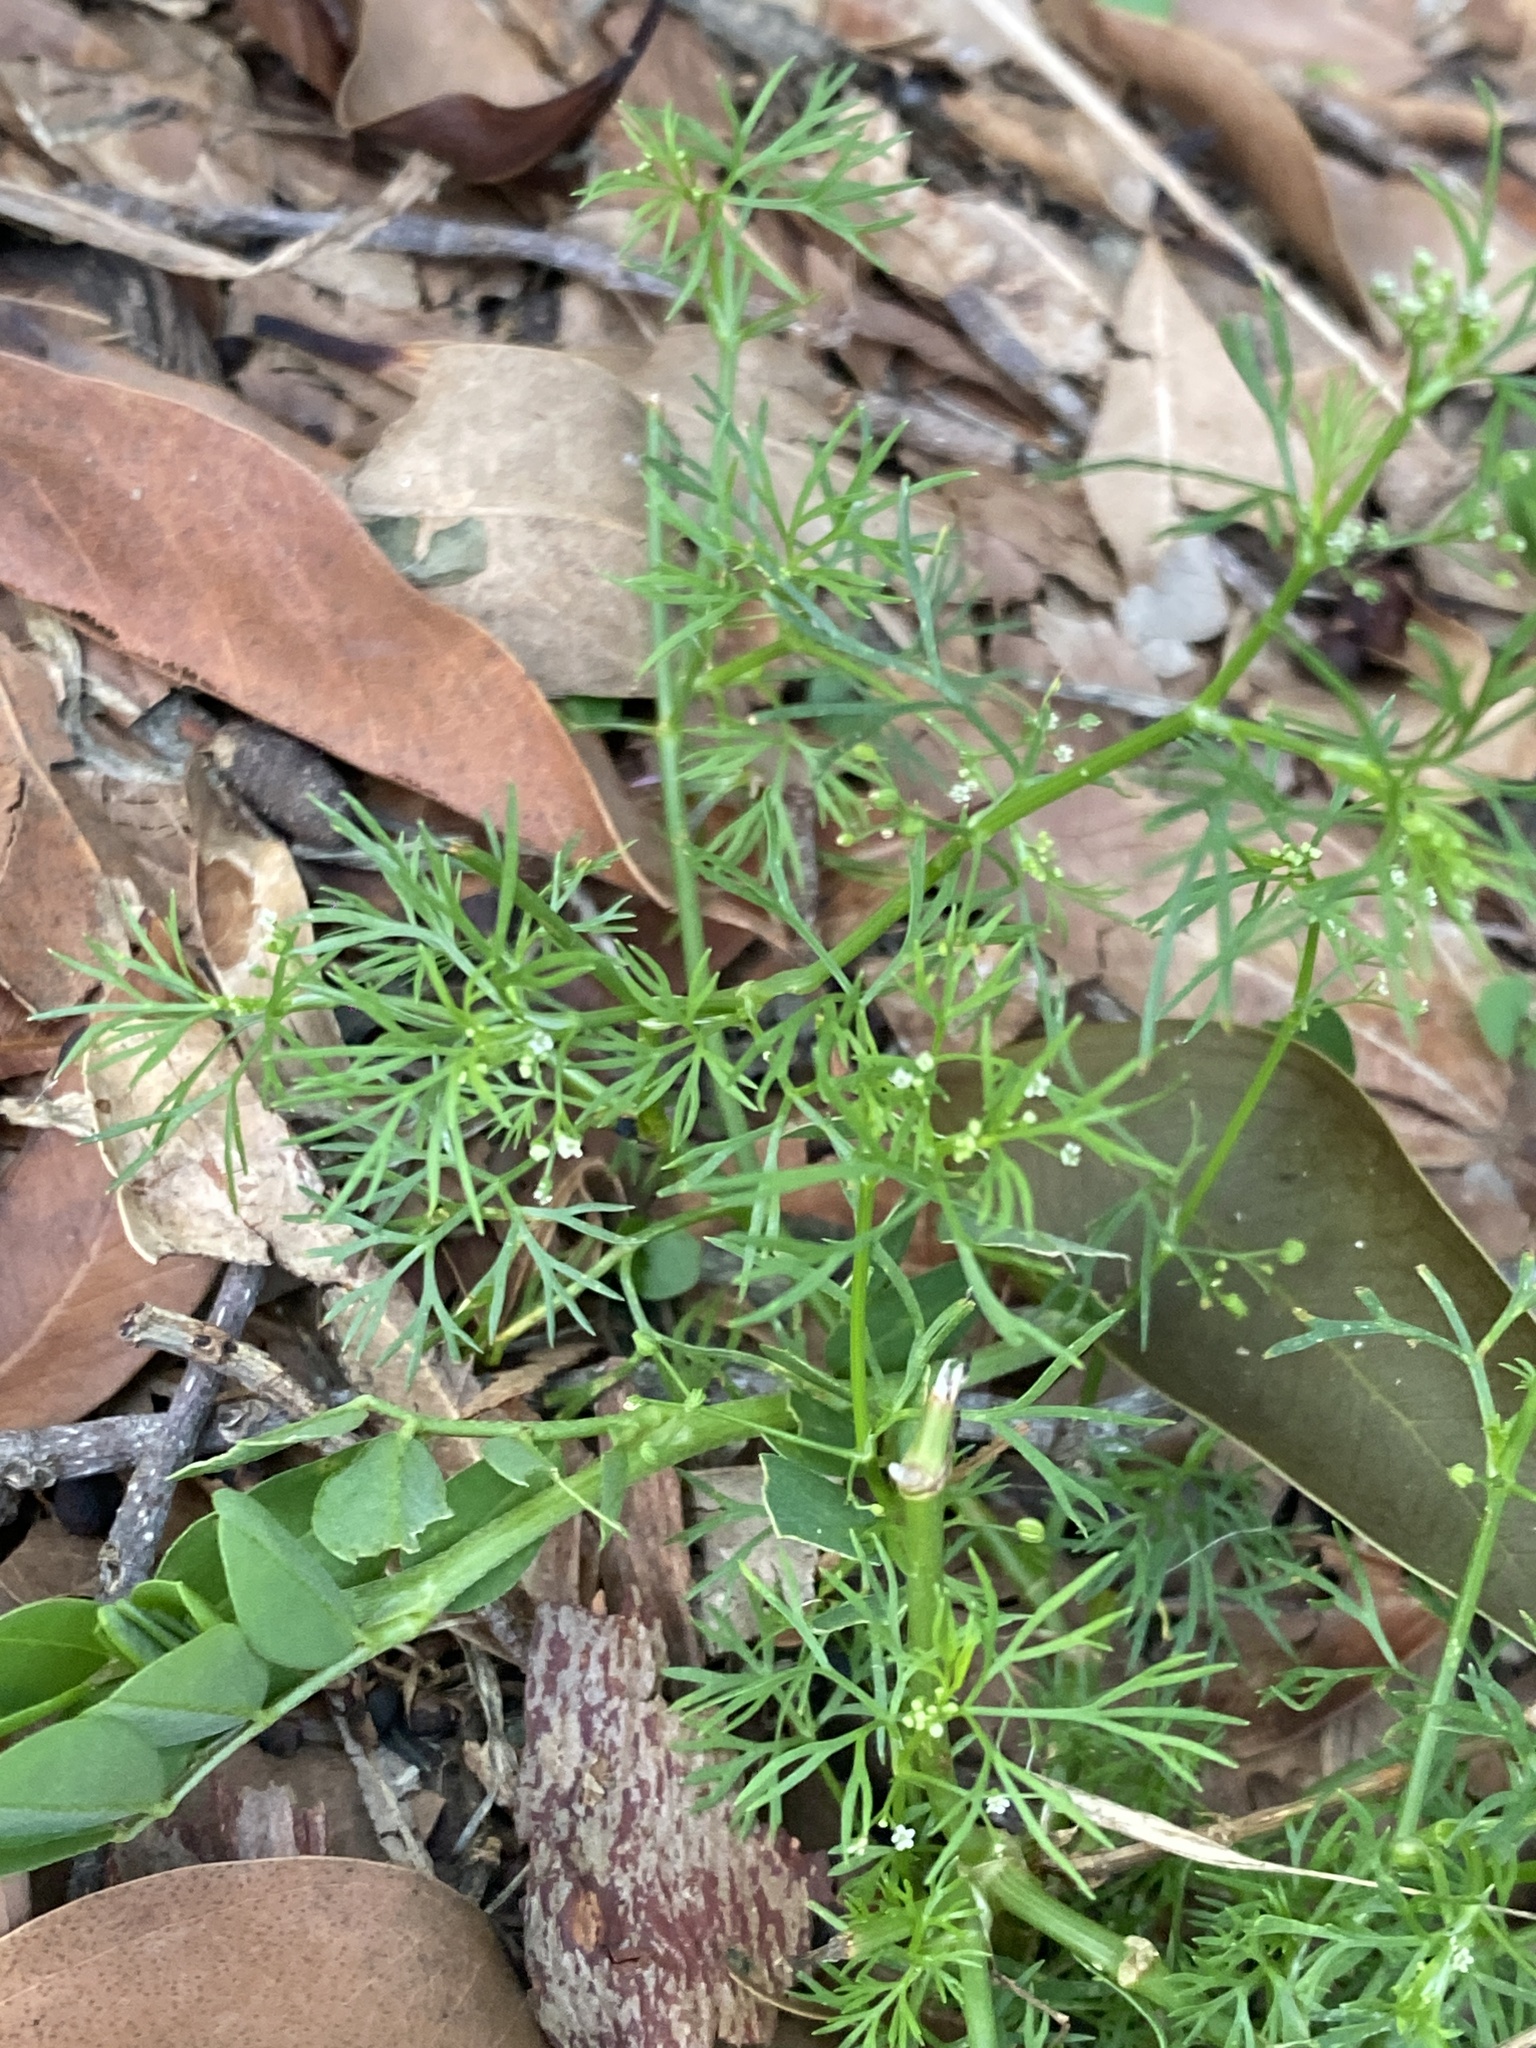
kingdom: Plantae
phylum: Tracheophyta
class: Magnoliopsida
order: Apiales
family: Apiaceae
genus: Cyclospermum
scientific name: Cyclospermum leptophyllum
